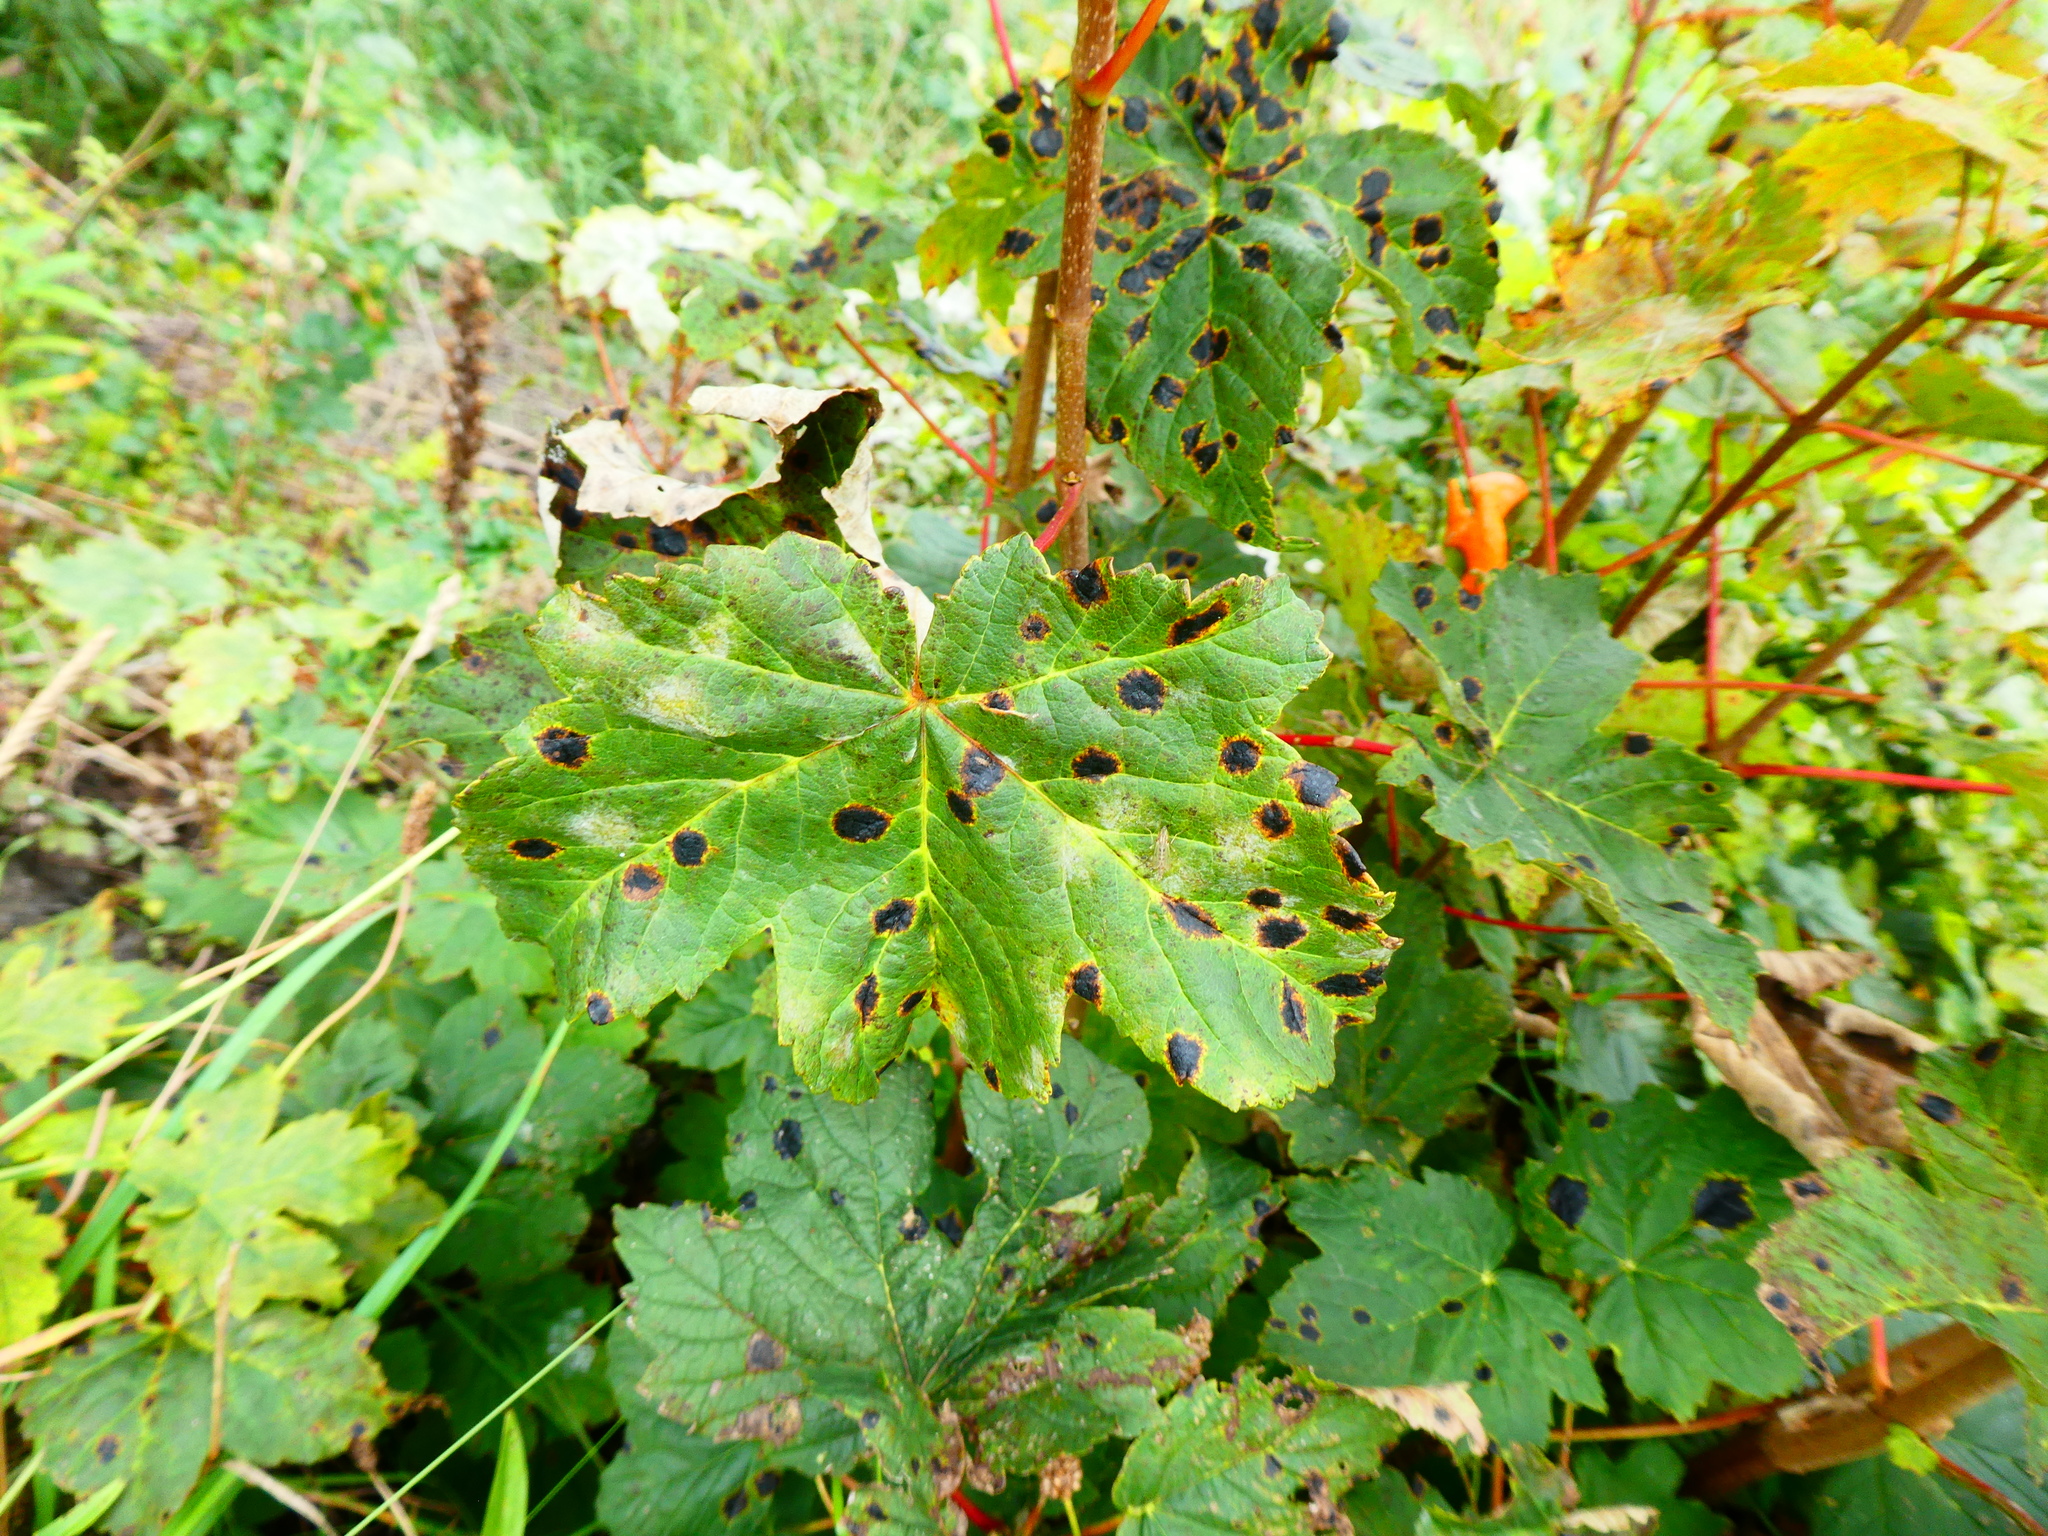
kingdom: Fungi
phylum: Ascomycota
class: Leotiomycetes
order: Rhytismatales
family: Rhytismataceae
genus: Rhytisma
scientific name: Rhytisma acerinum
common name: European tar spot
